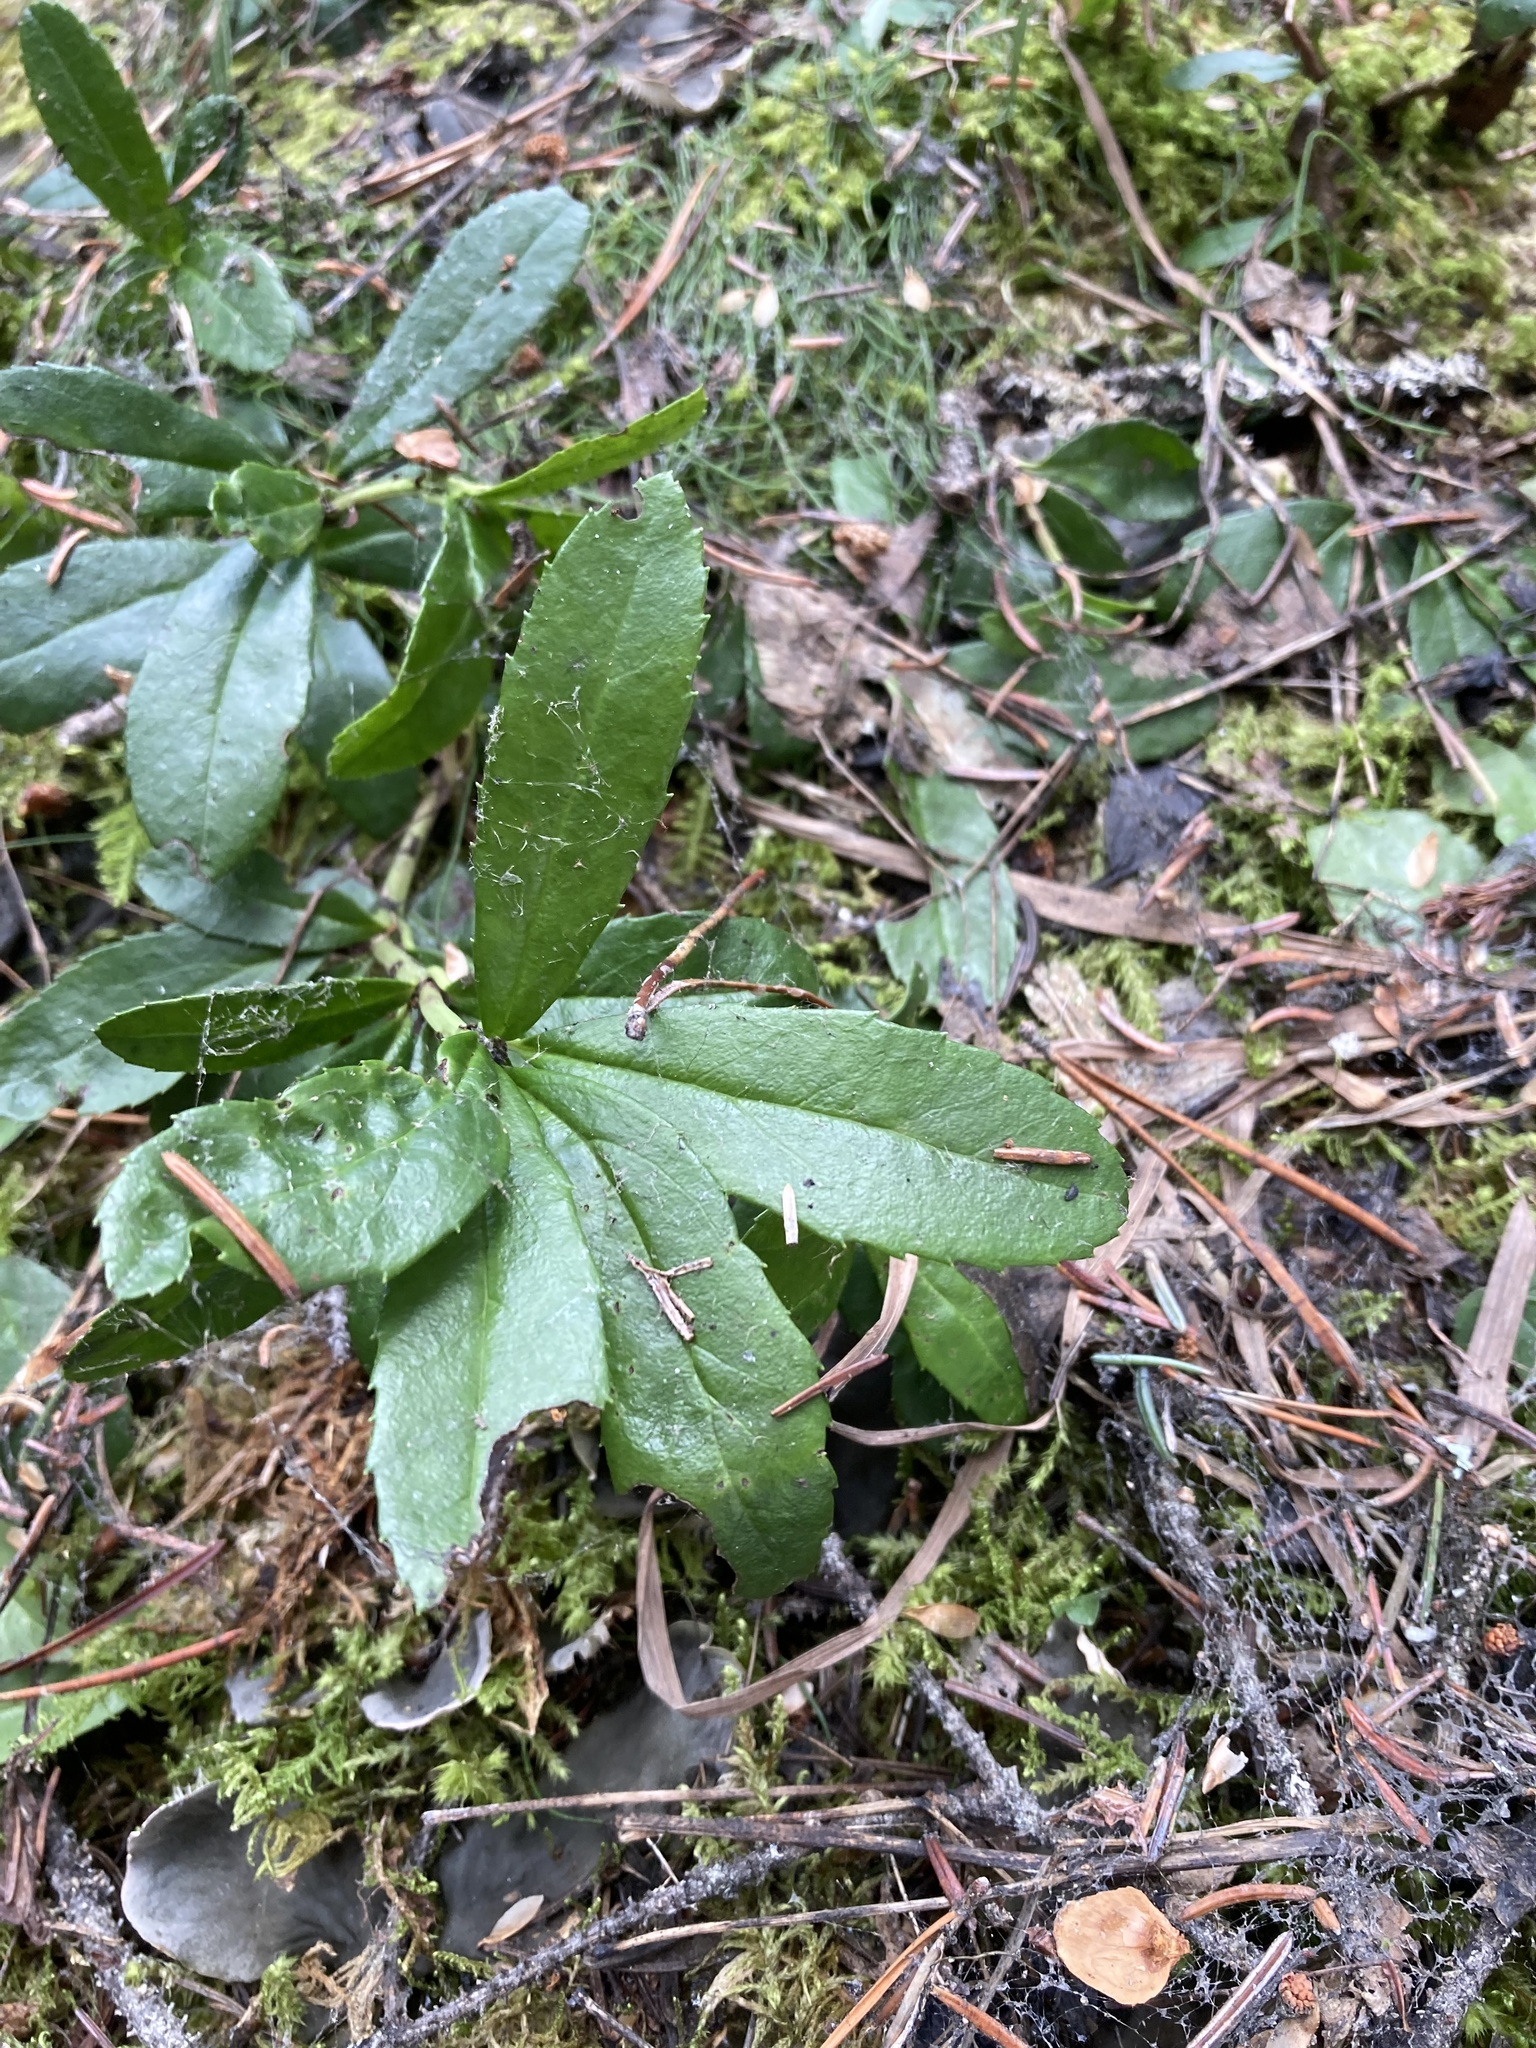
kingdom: Plantae
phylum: Tracheophyta
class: Magnoliopsida
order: Ericales
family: Ericaceae
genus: Chimaphila
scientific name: Chimaphila umbellata
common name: Pipsissewa
